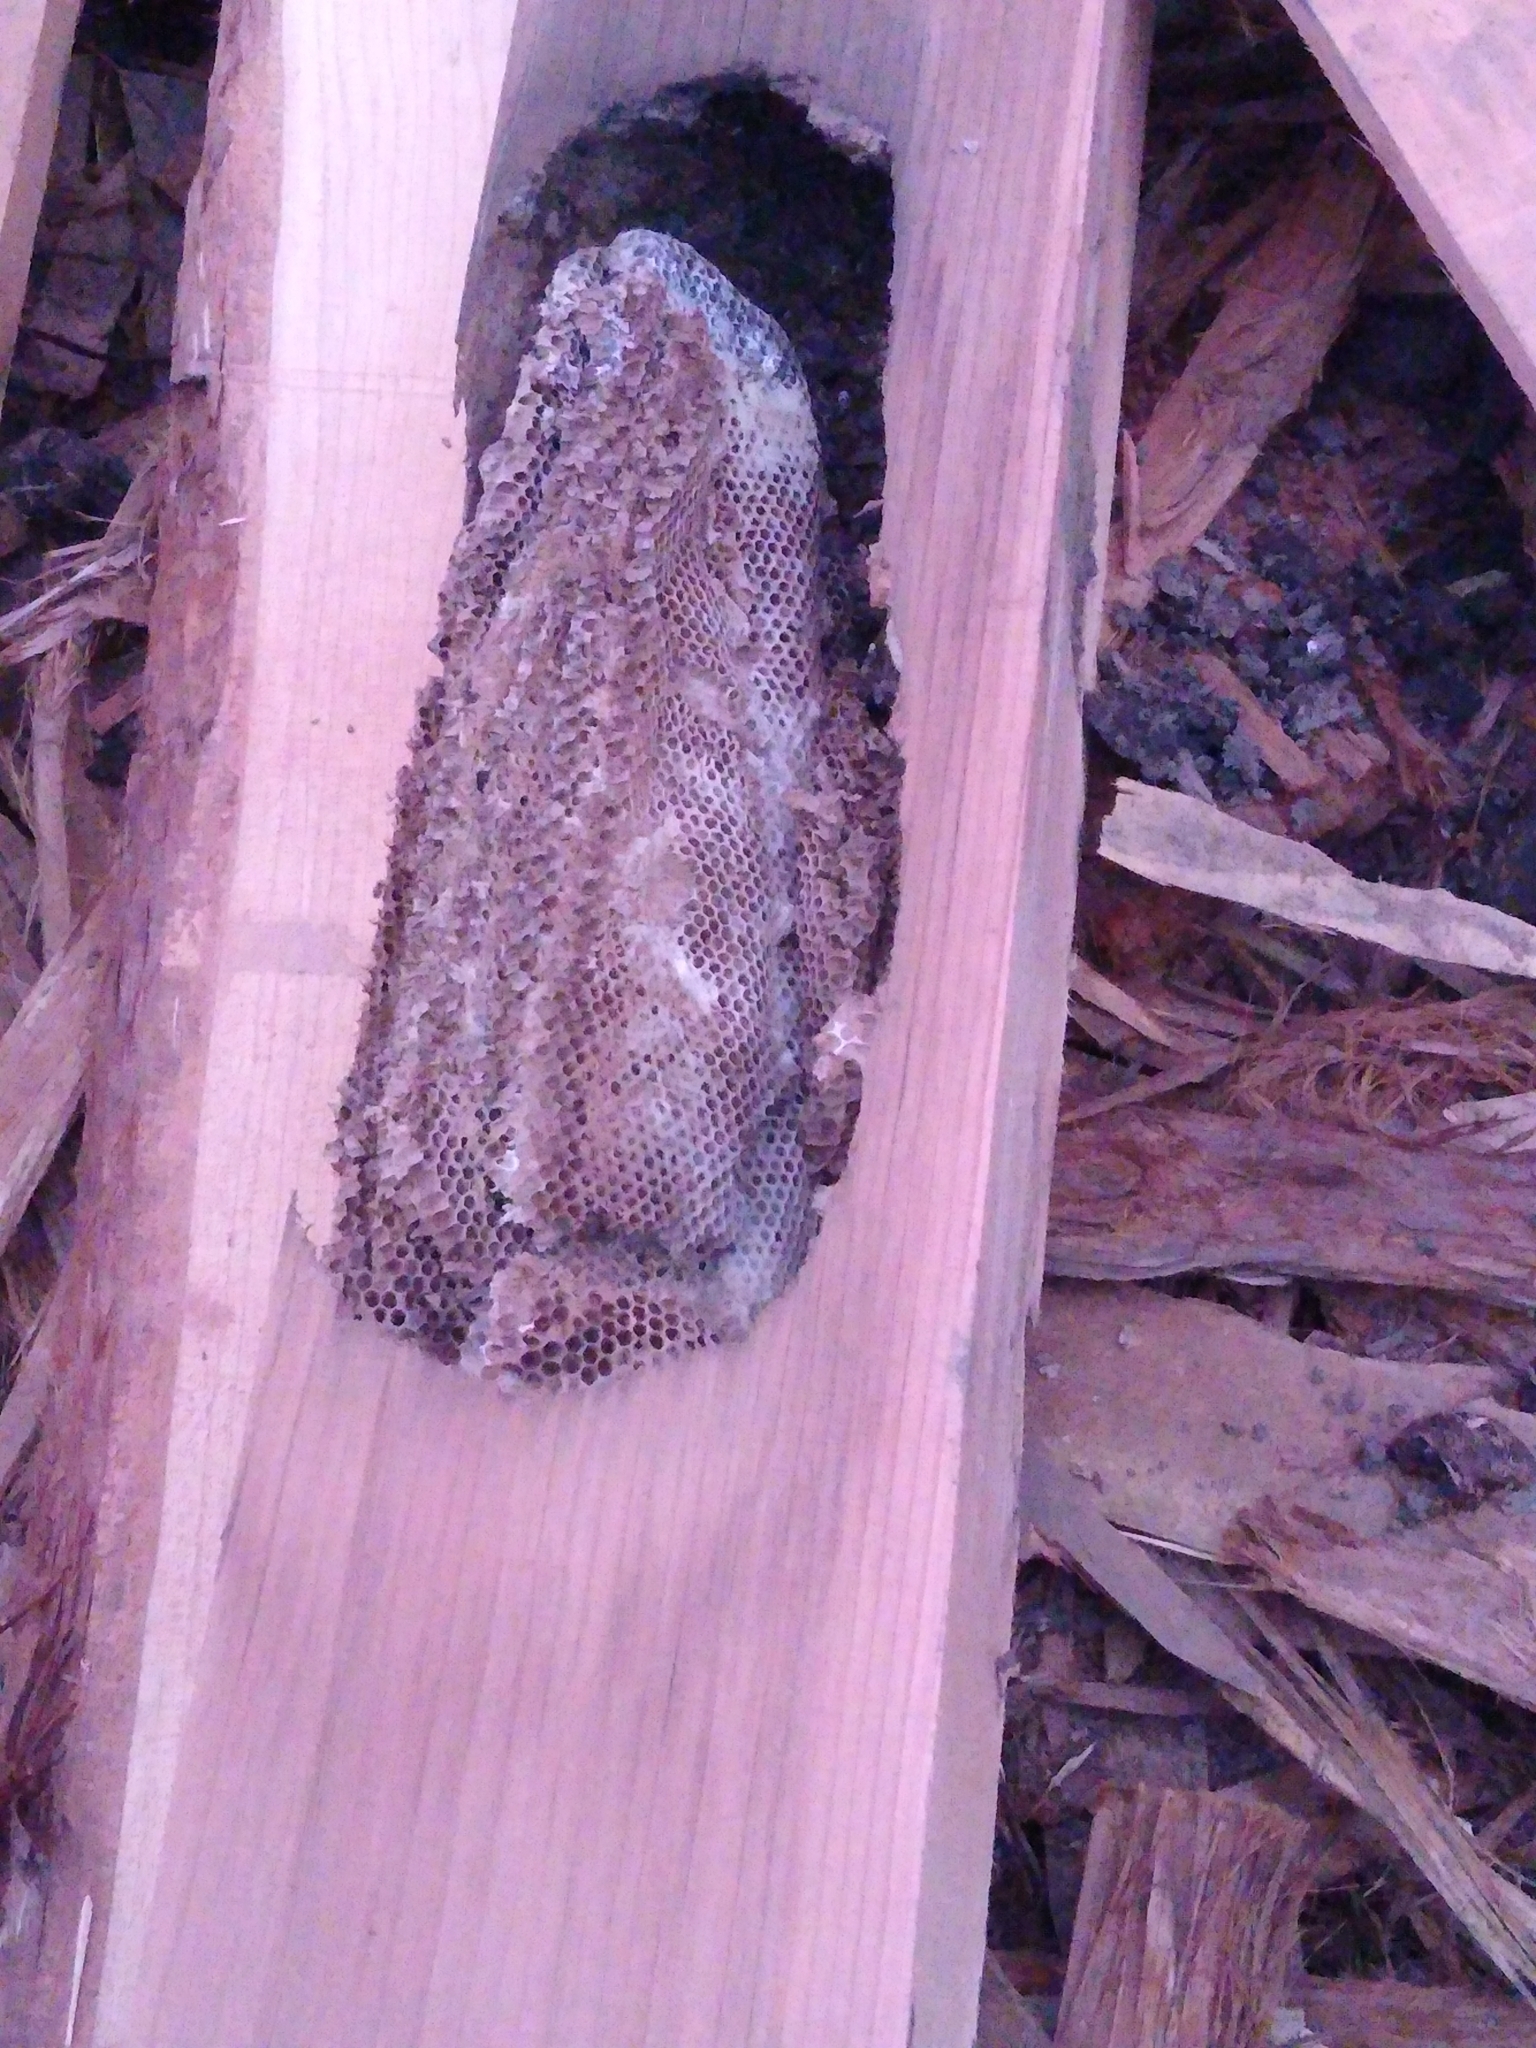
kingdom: Animalia
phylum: Arthropoda
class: Insecta
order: Hymenoptera
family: Apidae
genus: Apis
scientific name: Apis mellifera
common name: Honey bee
